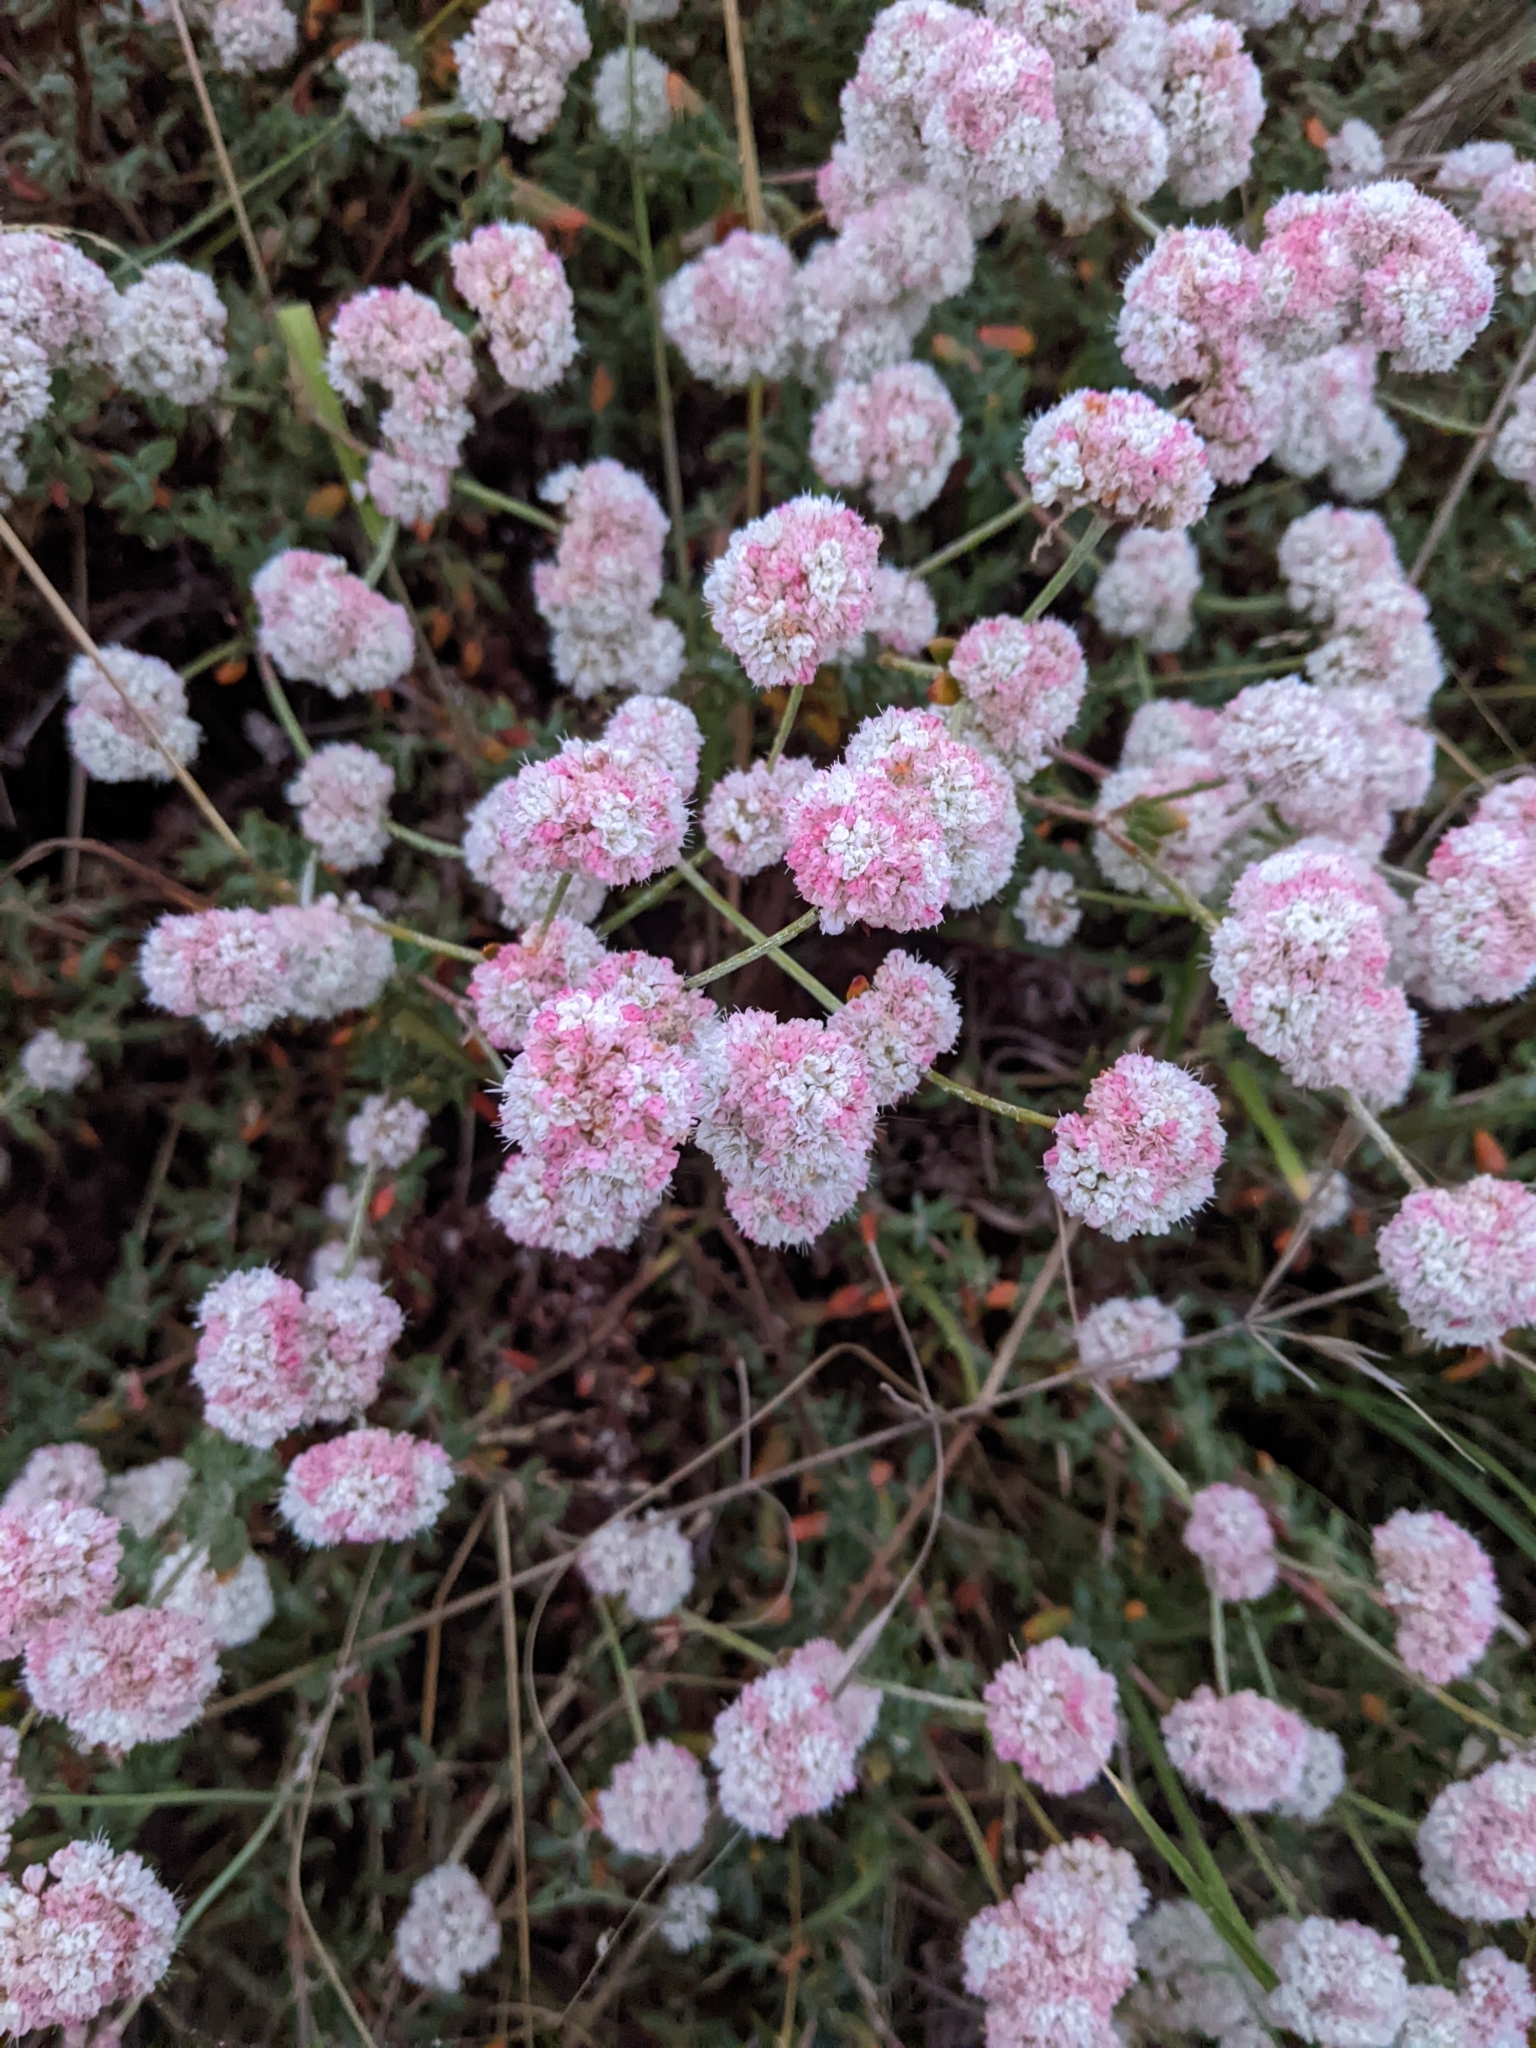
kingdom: Plantae
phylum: Tracheophyta
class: Magnoliopsida
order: Caryophyllales
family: Polygonaceae
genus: Eriogonum
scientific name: Eriogonum parvifolium
